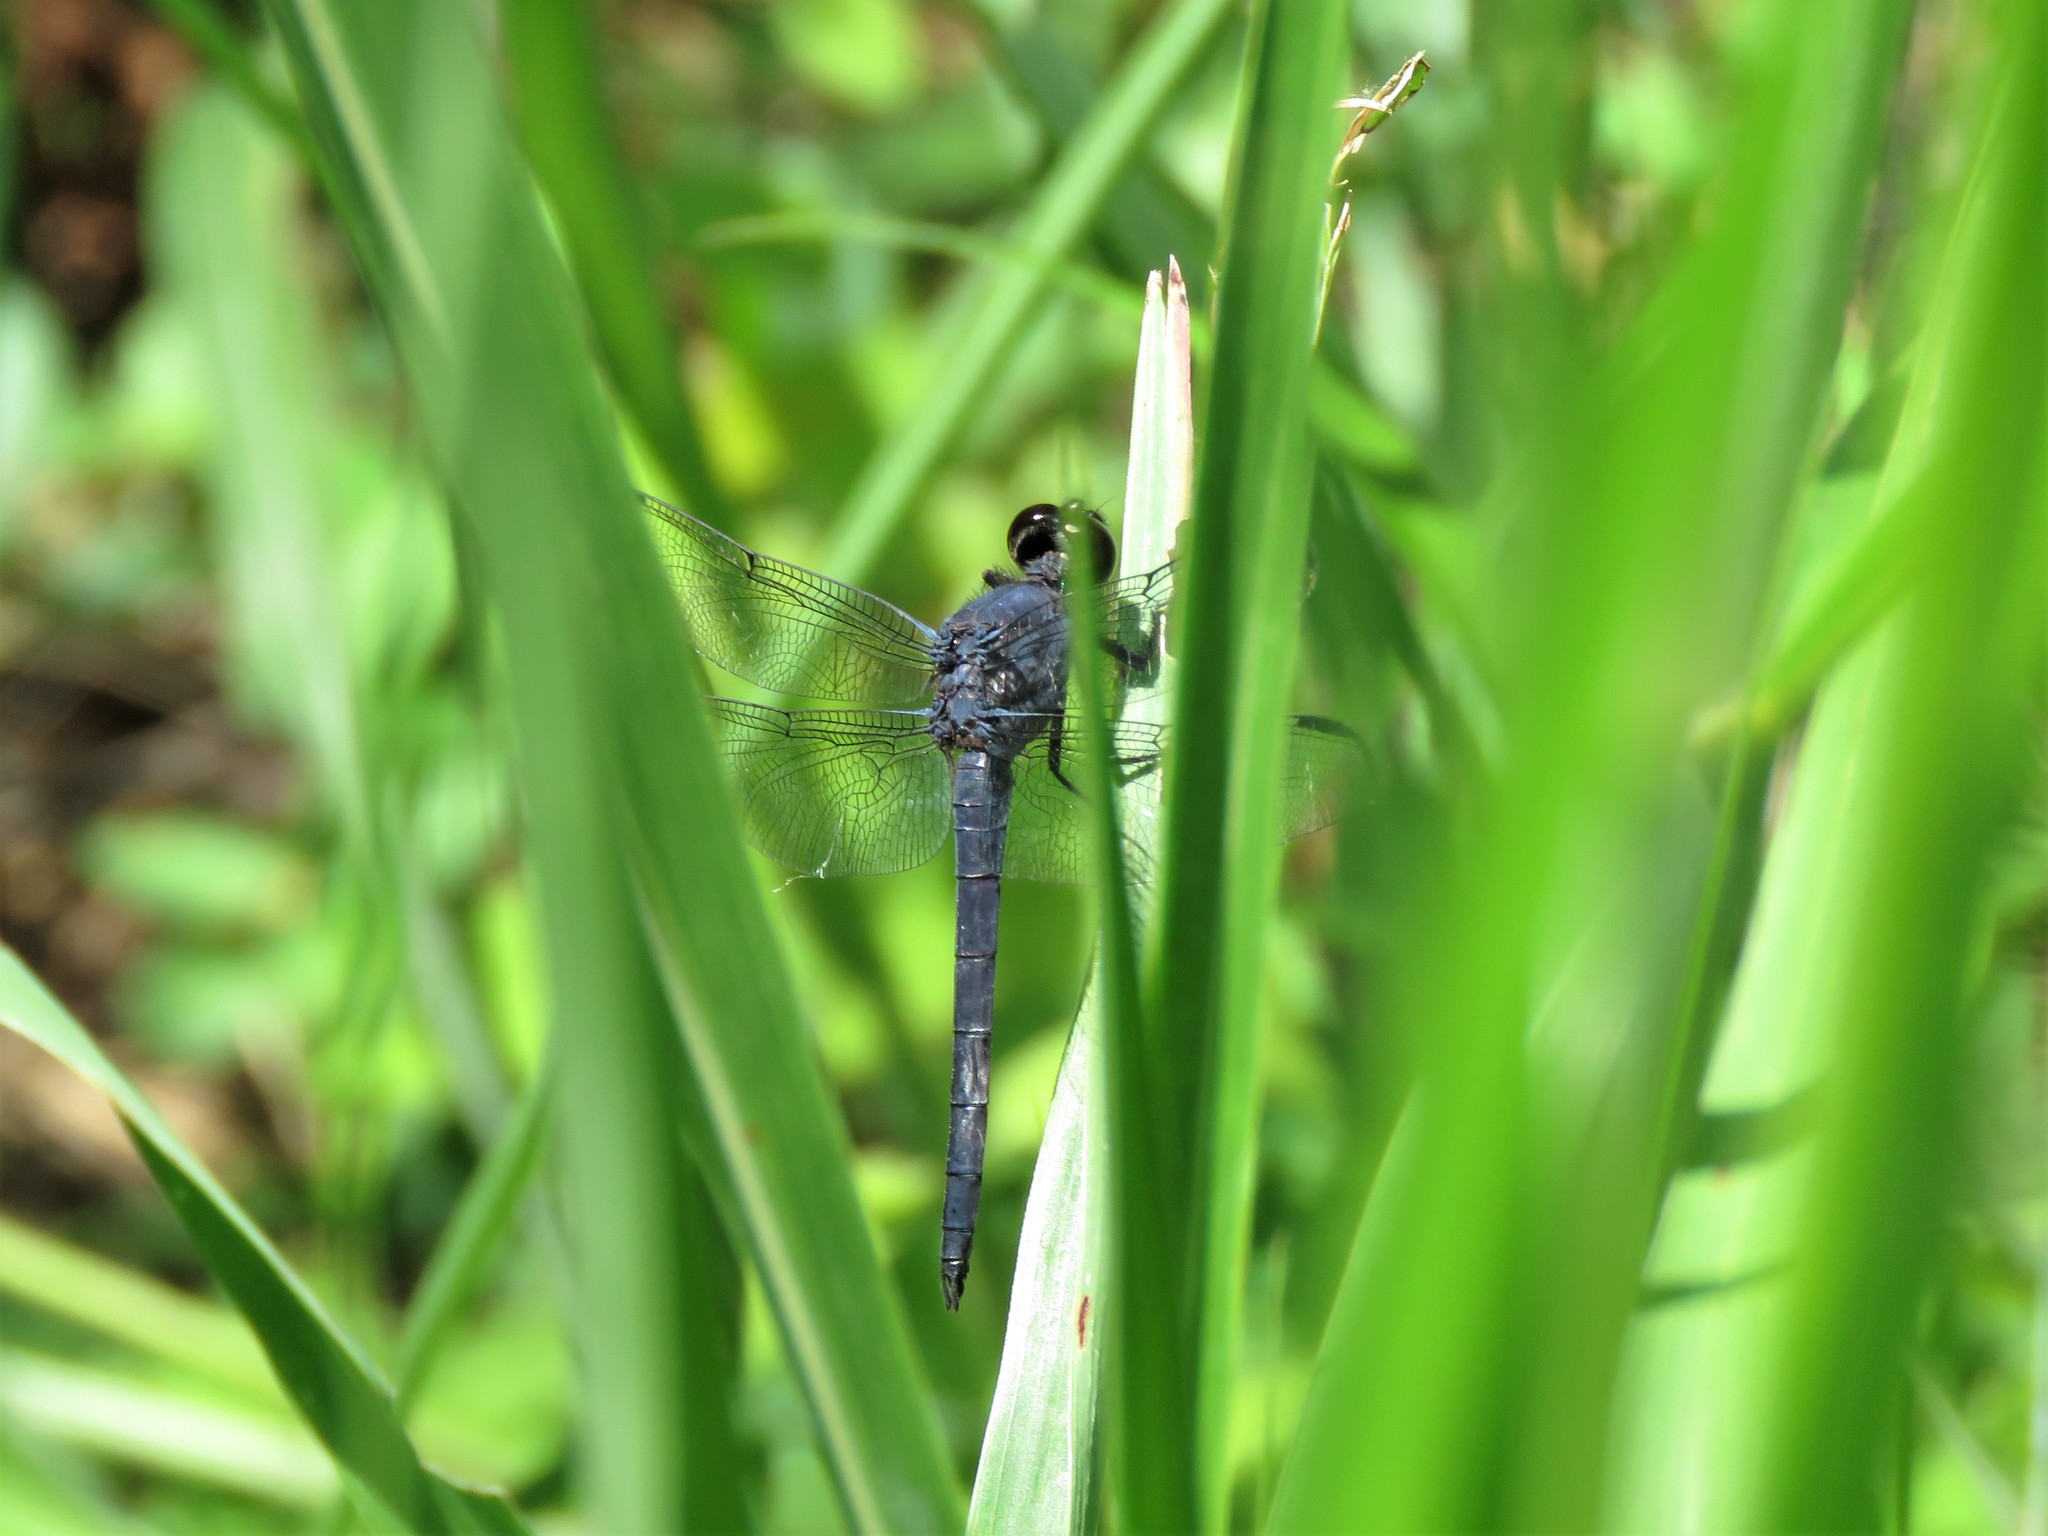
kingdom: Animalia
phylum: Arthropoda
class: Insecta
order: Odonata
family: Libellulidae
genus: Libellula
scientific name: Libellula incesta
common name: Slaty skimmer
